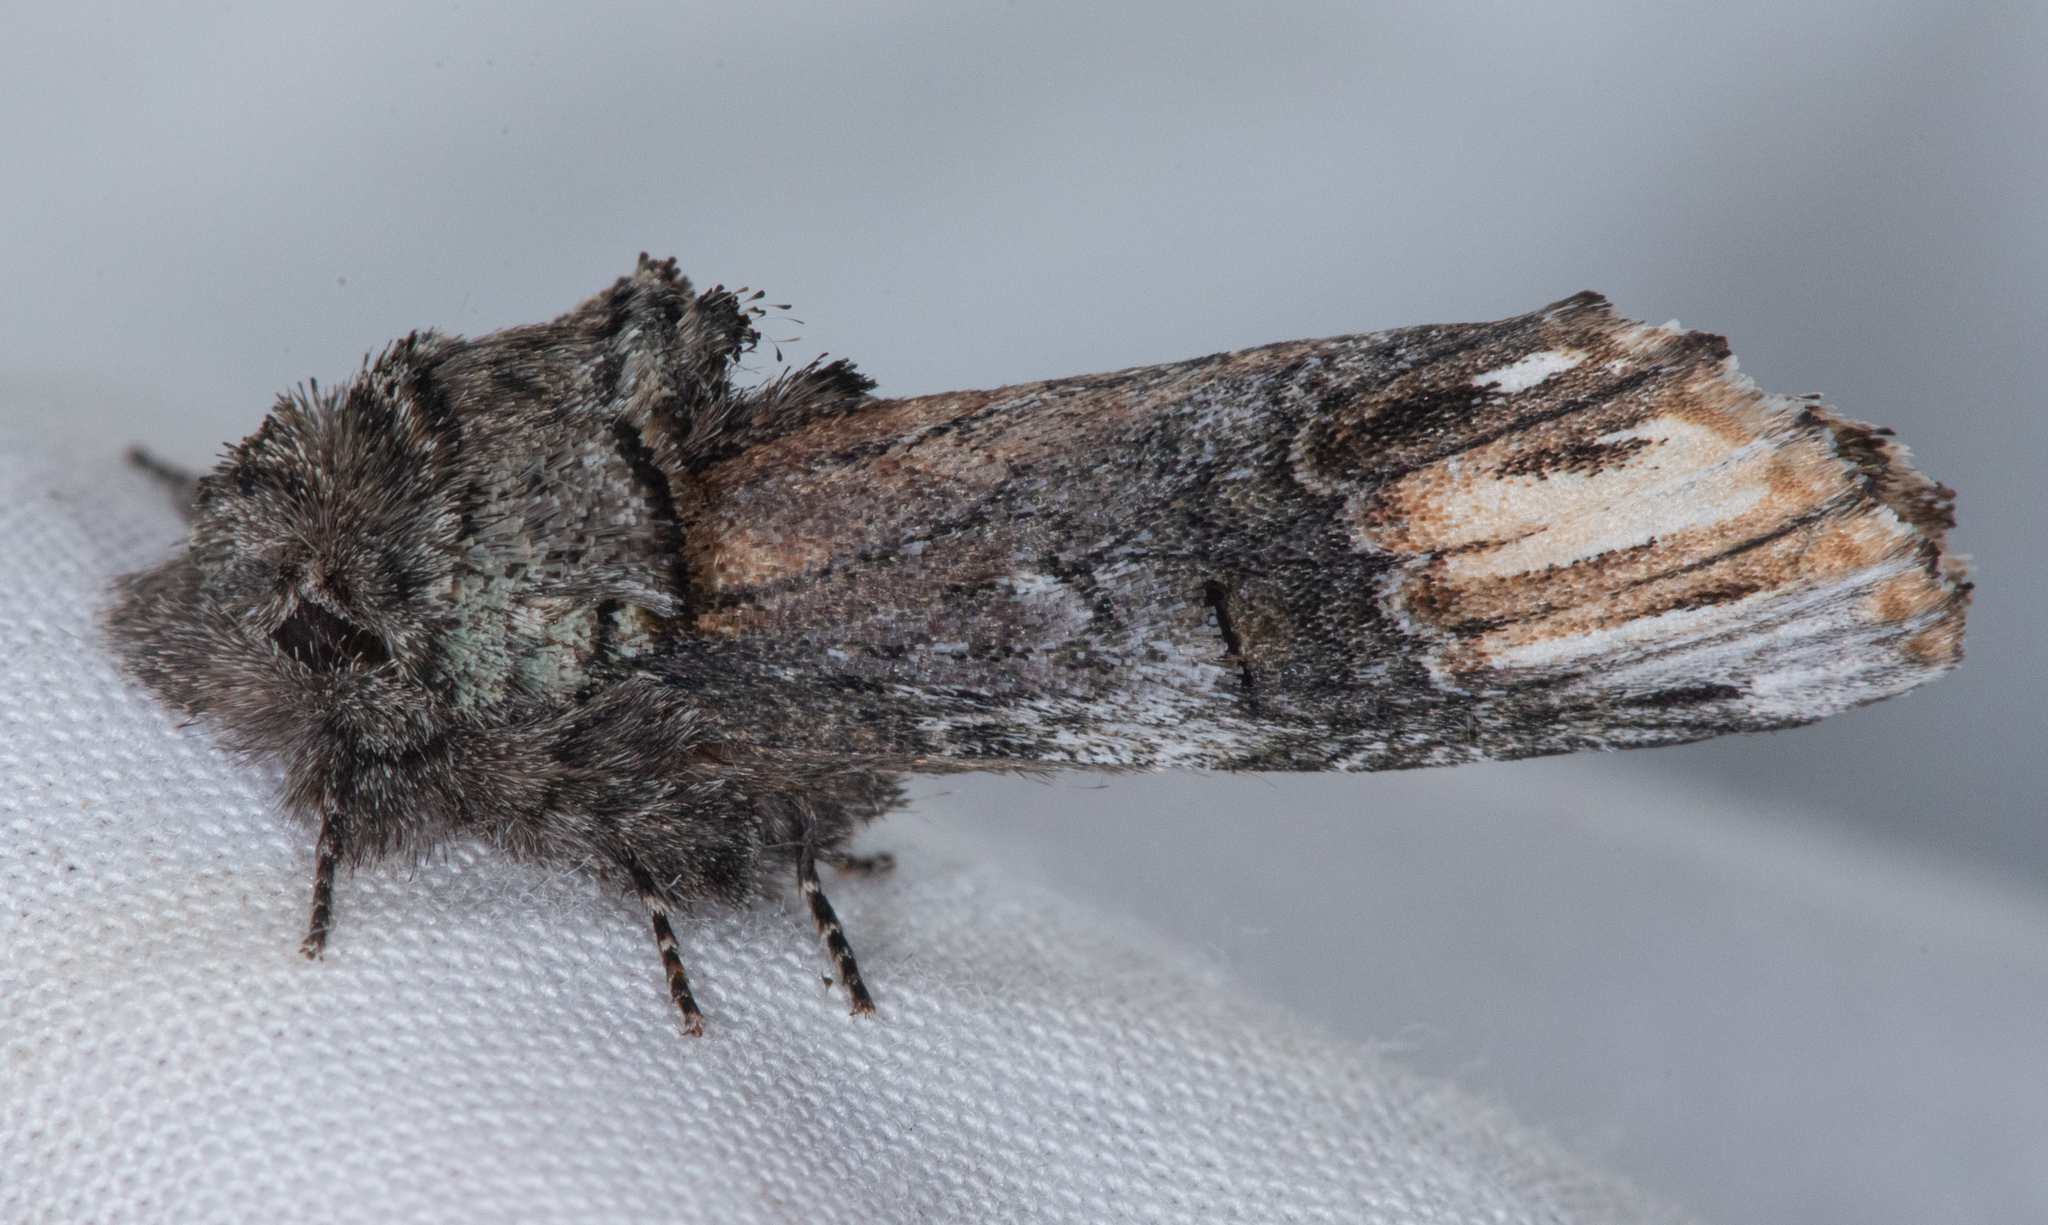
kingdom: Animalia
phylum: Arthropoda
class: Insecta
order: Lepidoptera
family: Notodontidae
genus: Schizura
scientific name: Schizura
